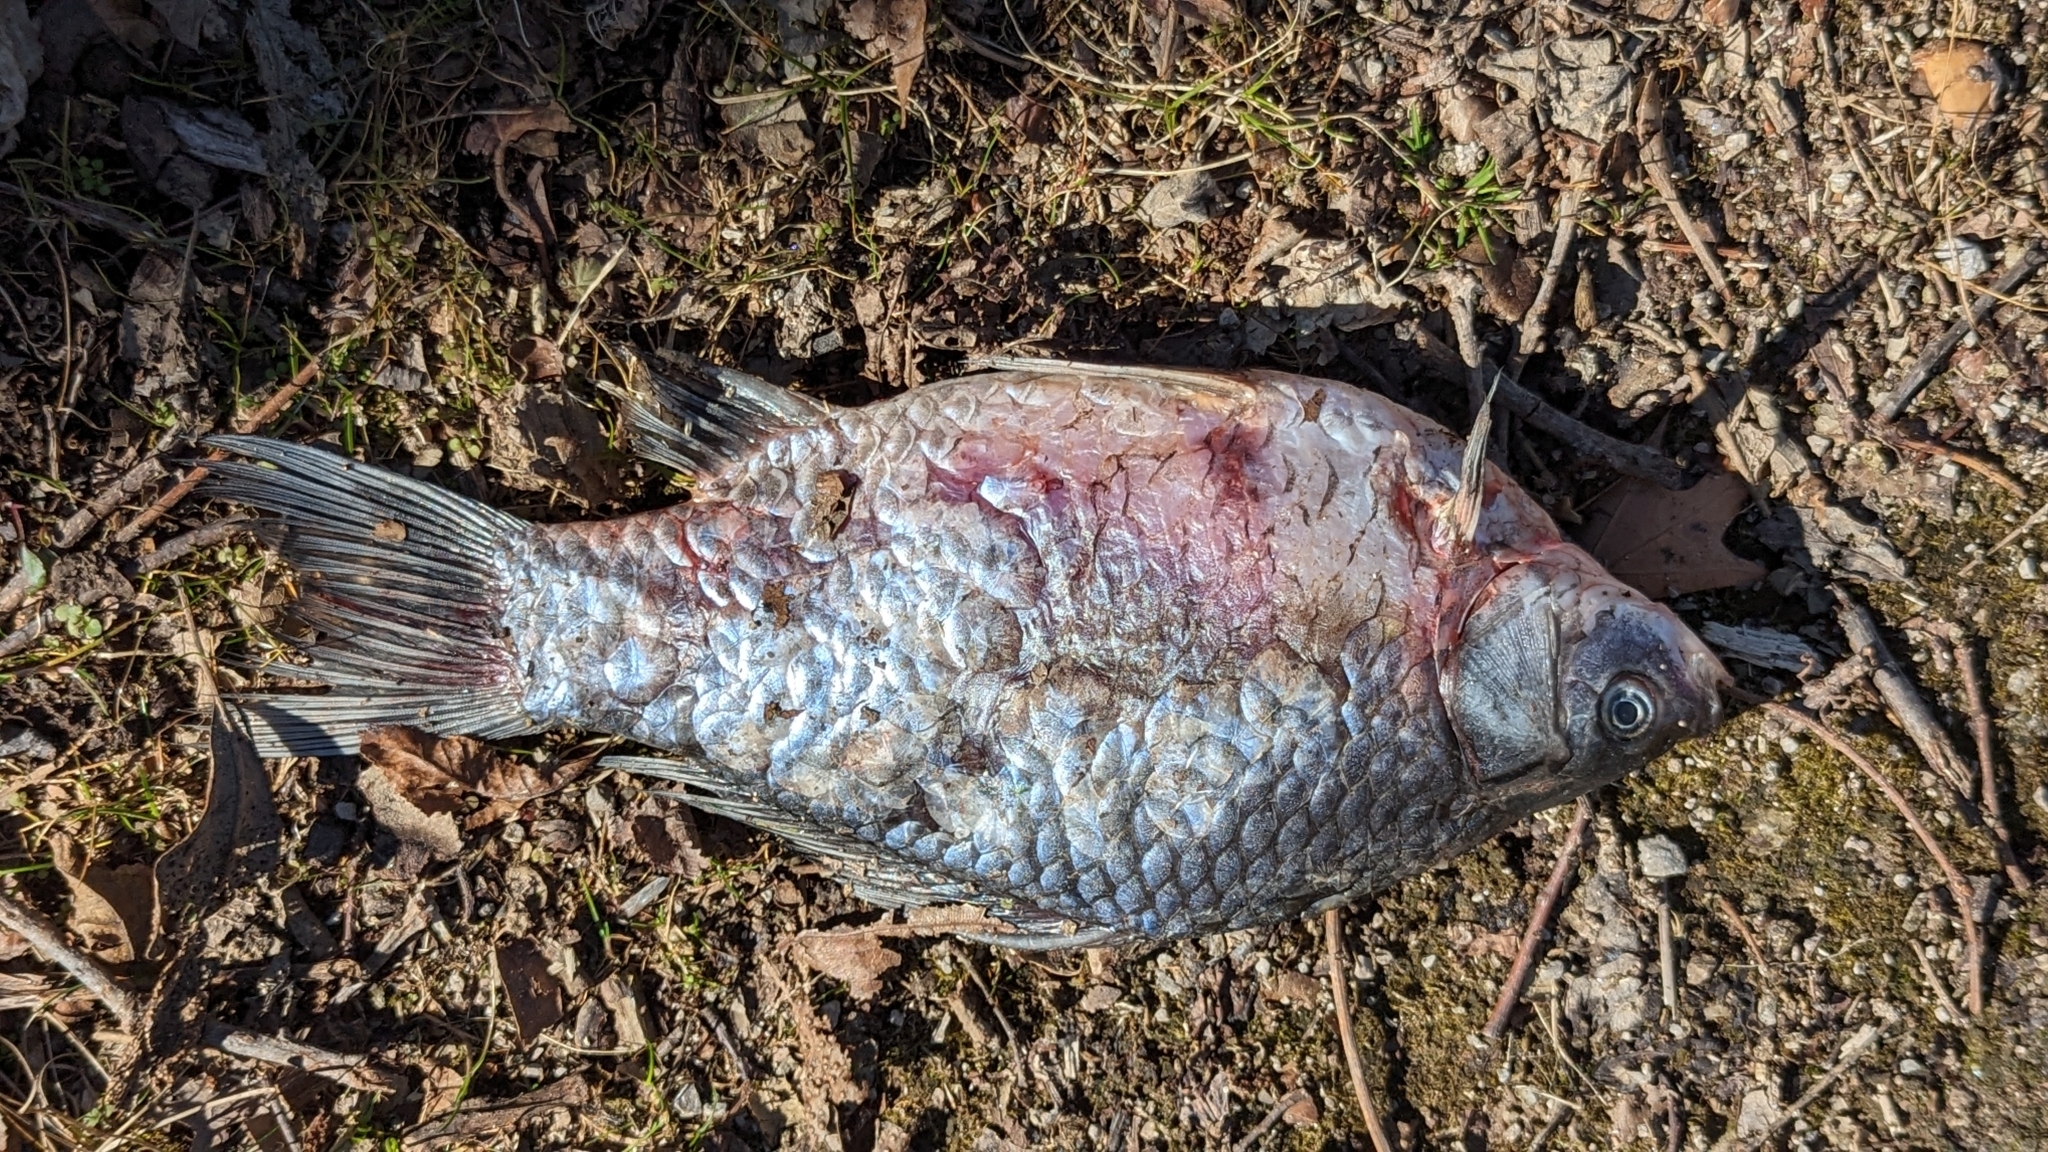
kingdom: Animalia
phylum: Chordata
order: Cypriniformes
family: Cyprinidae
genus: Carassius
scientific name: Carassius auratus
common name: Goldfish
